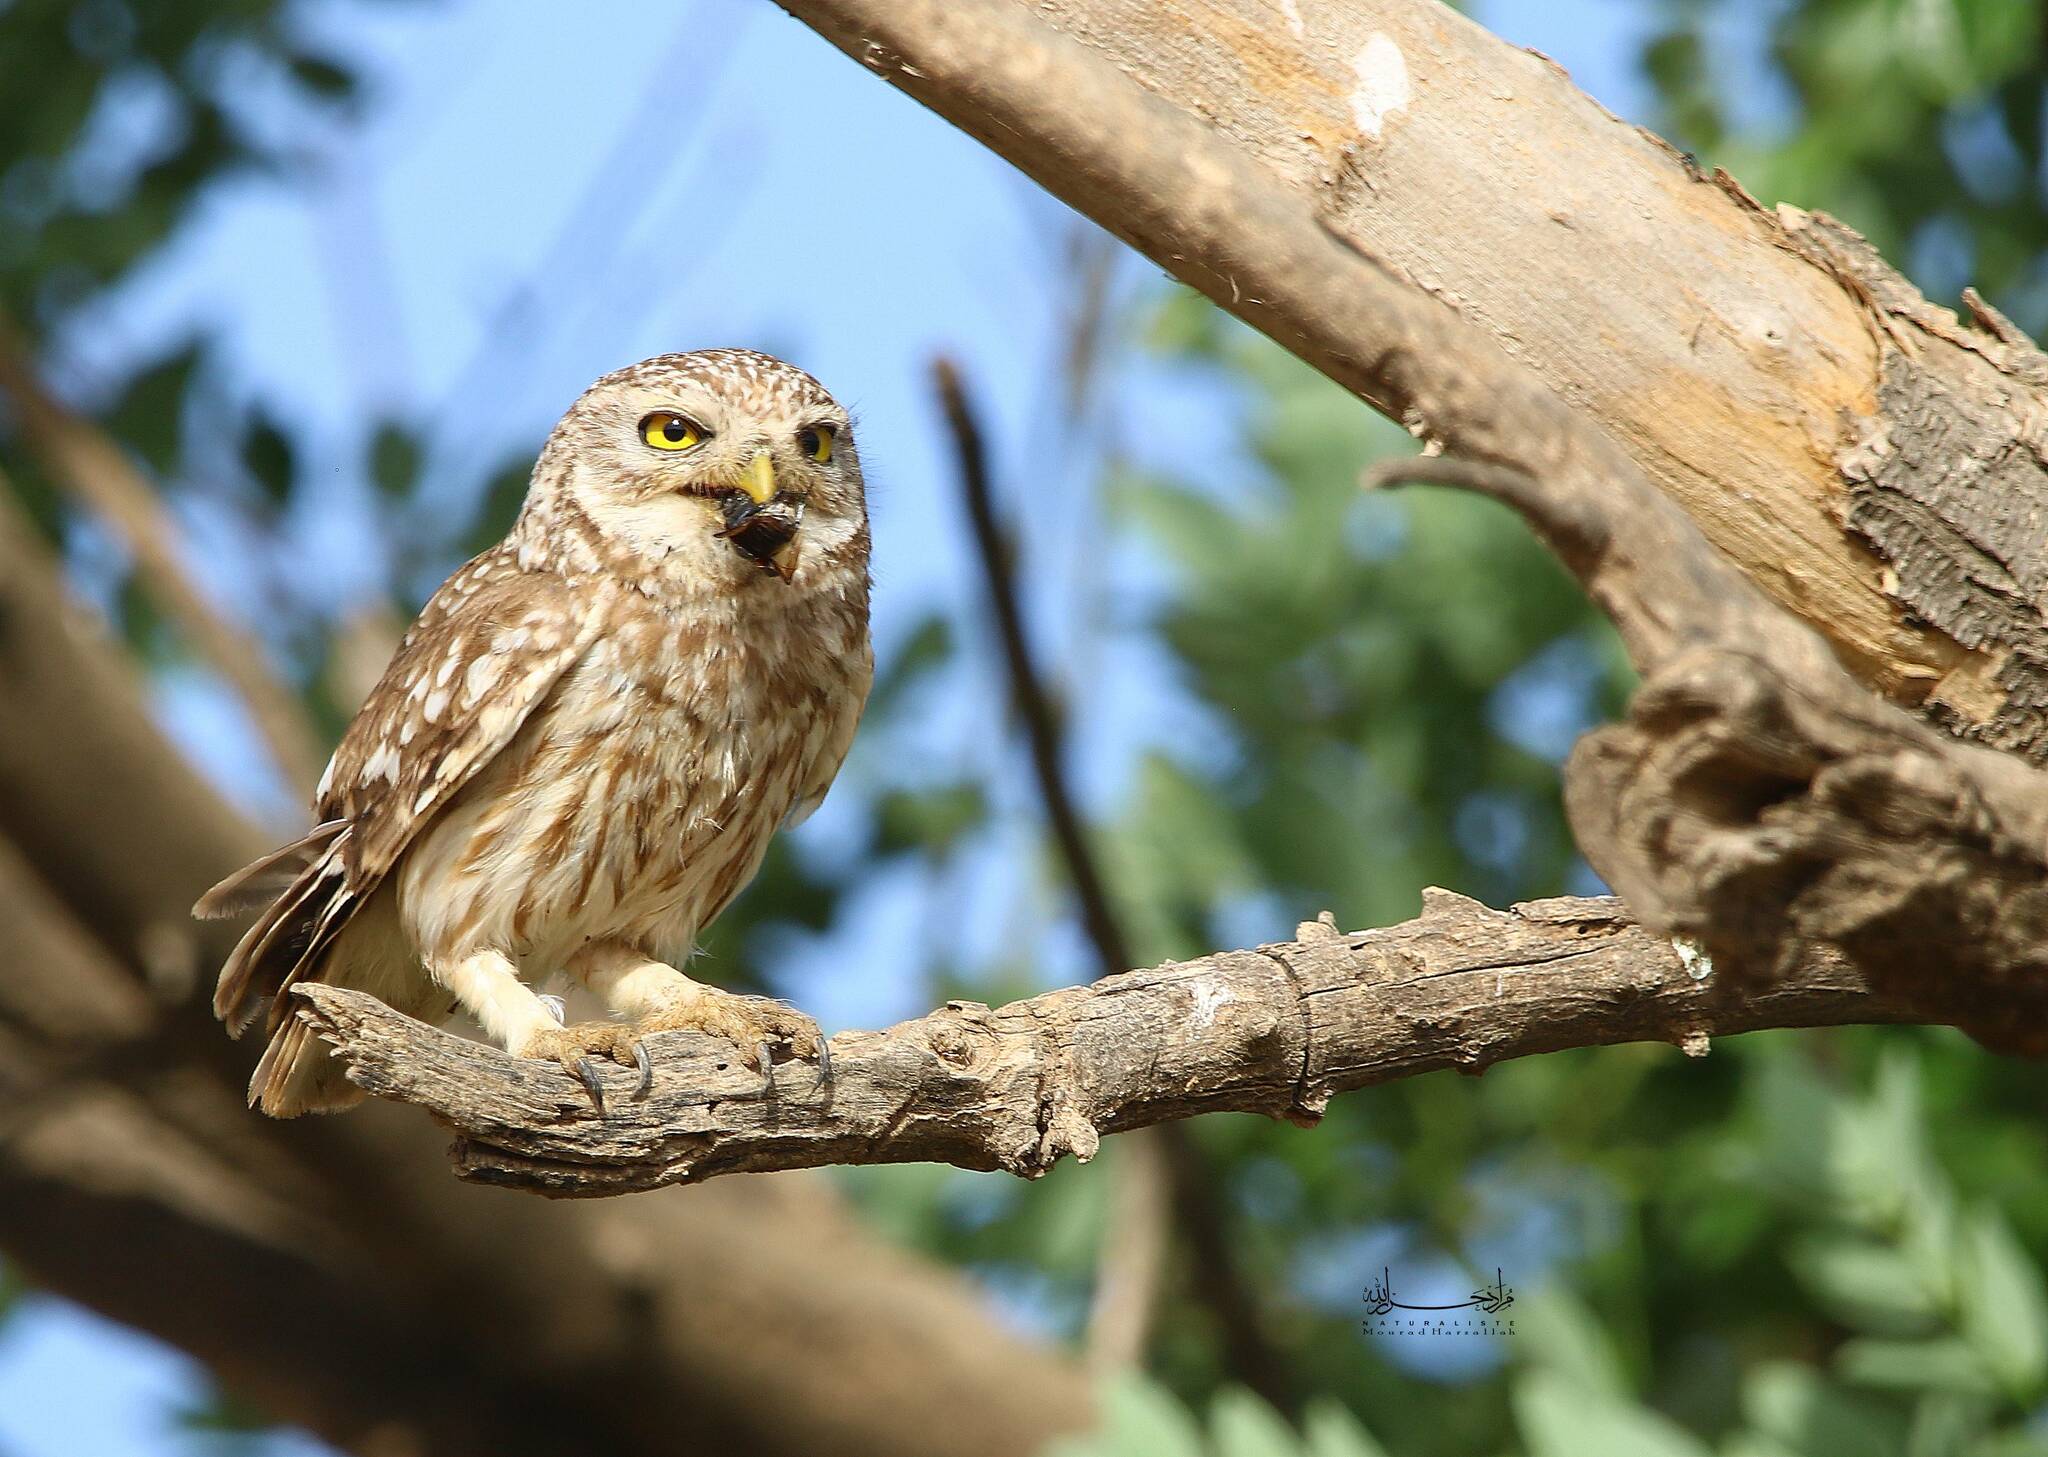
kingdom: Animalia
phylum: Chordata
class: Aves
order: Strigiformes
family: Strigidae
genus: Athene
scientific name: Athene noctua
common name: Little owl
